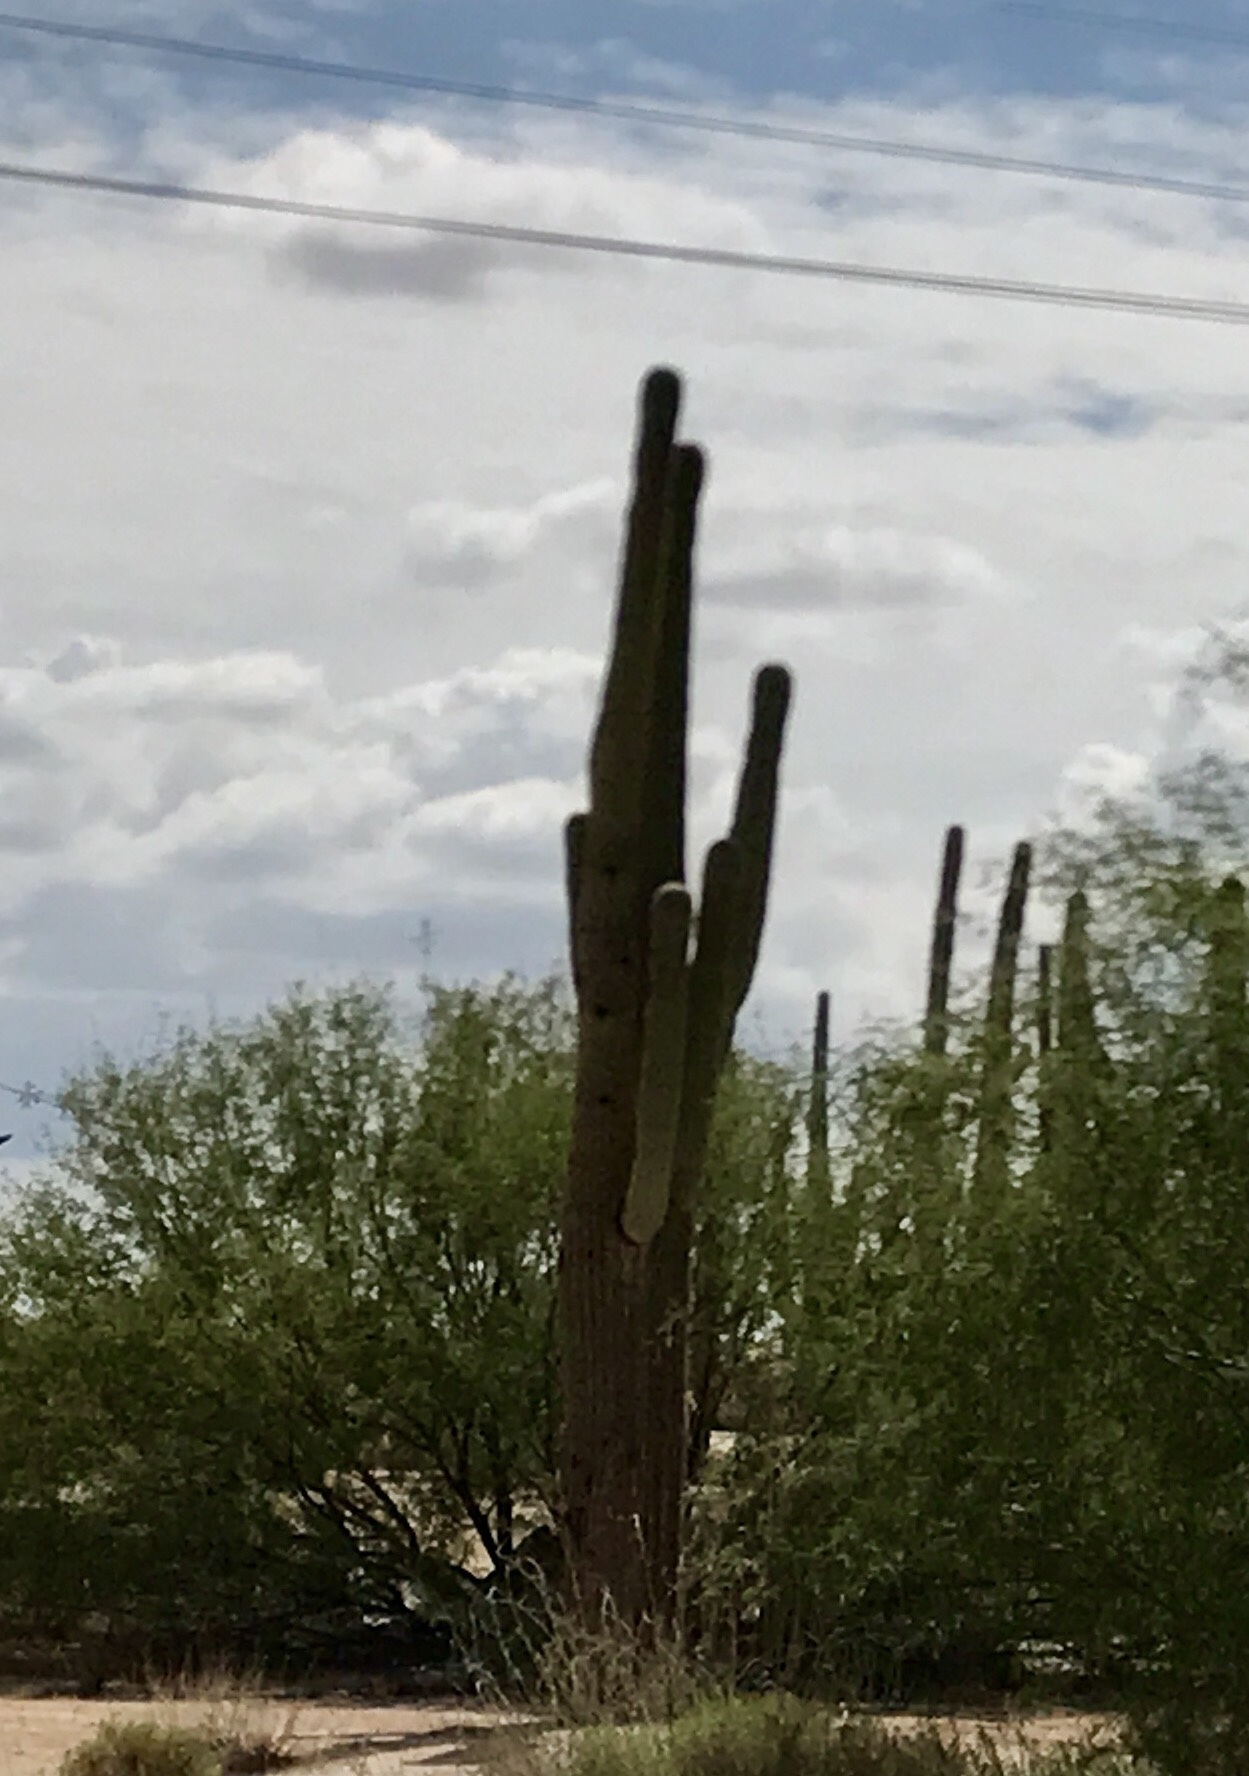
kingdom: Plantae
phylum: Tracheophyta
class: Magnoliopsida
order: Caryophyllales
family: Cactaceae
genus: Carnegiea
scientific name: Carnegiea gigantea
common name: Saguaro
